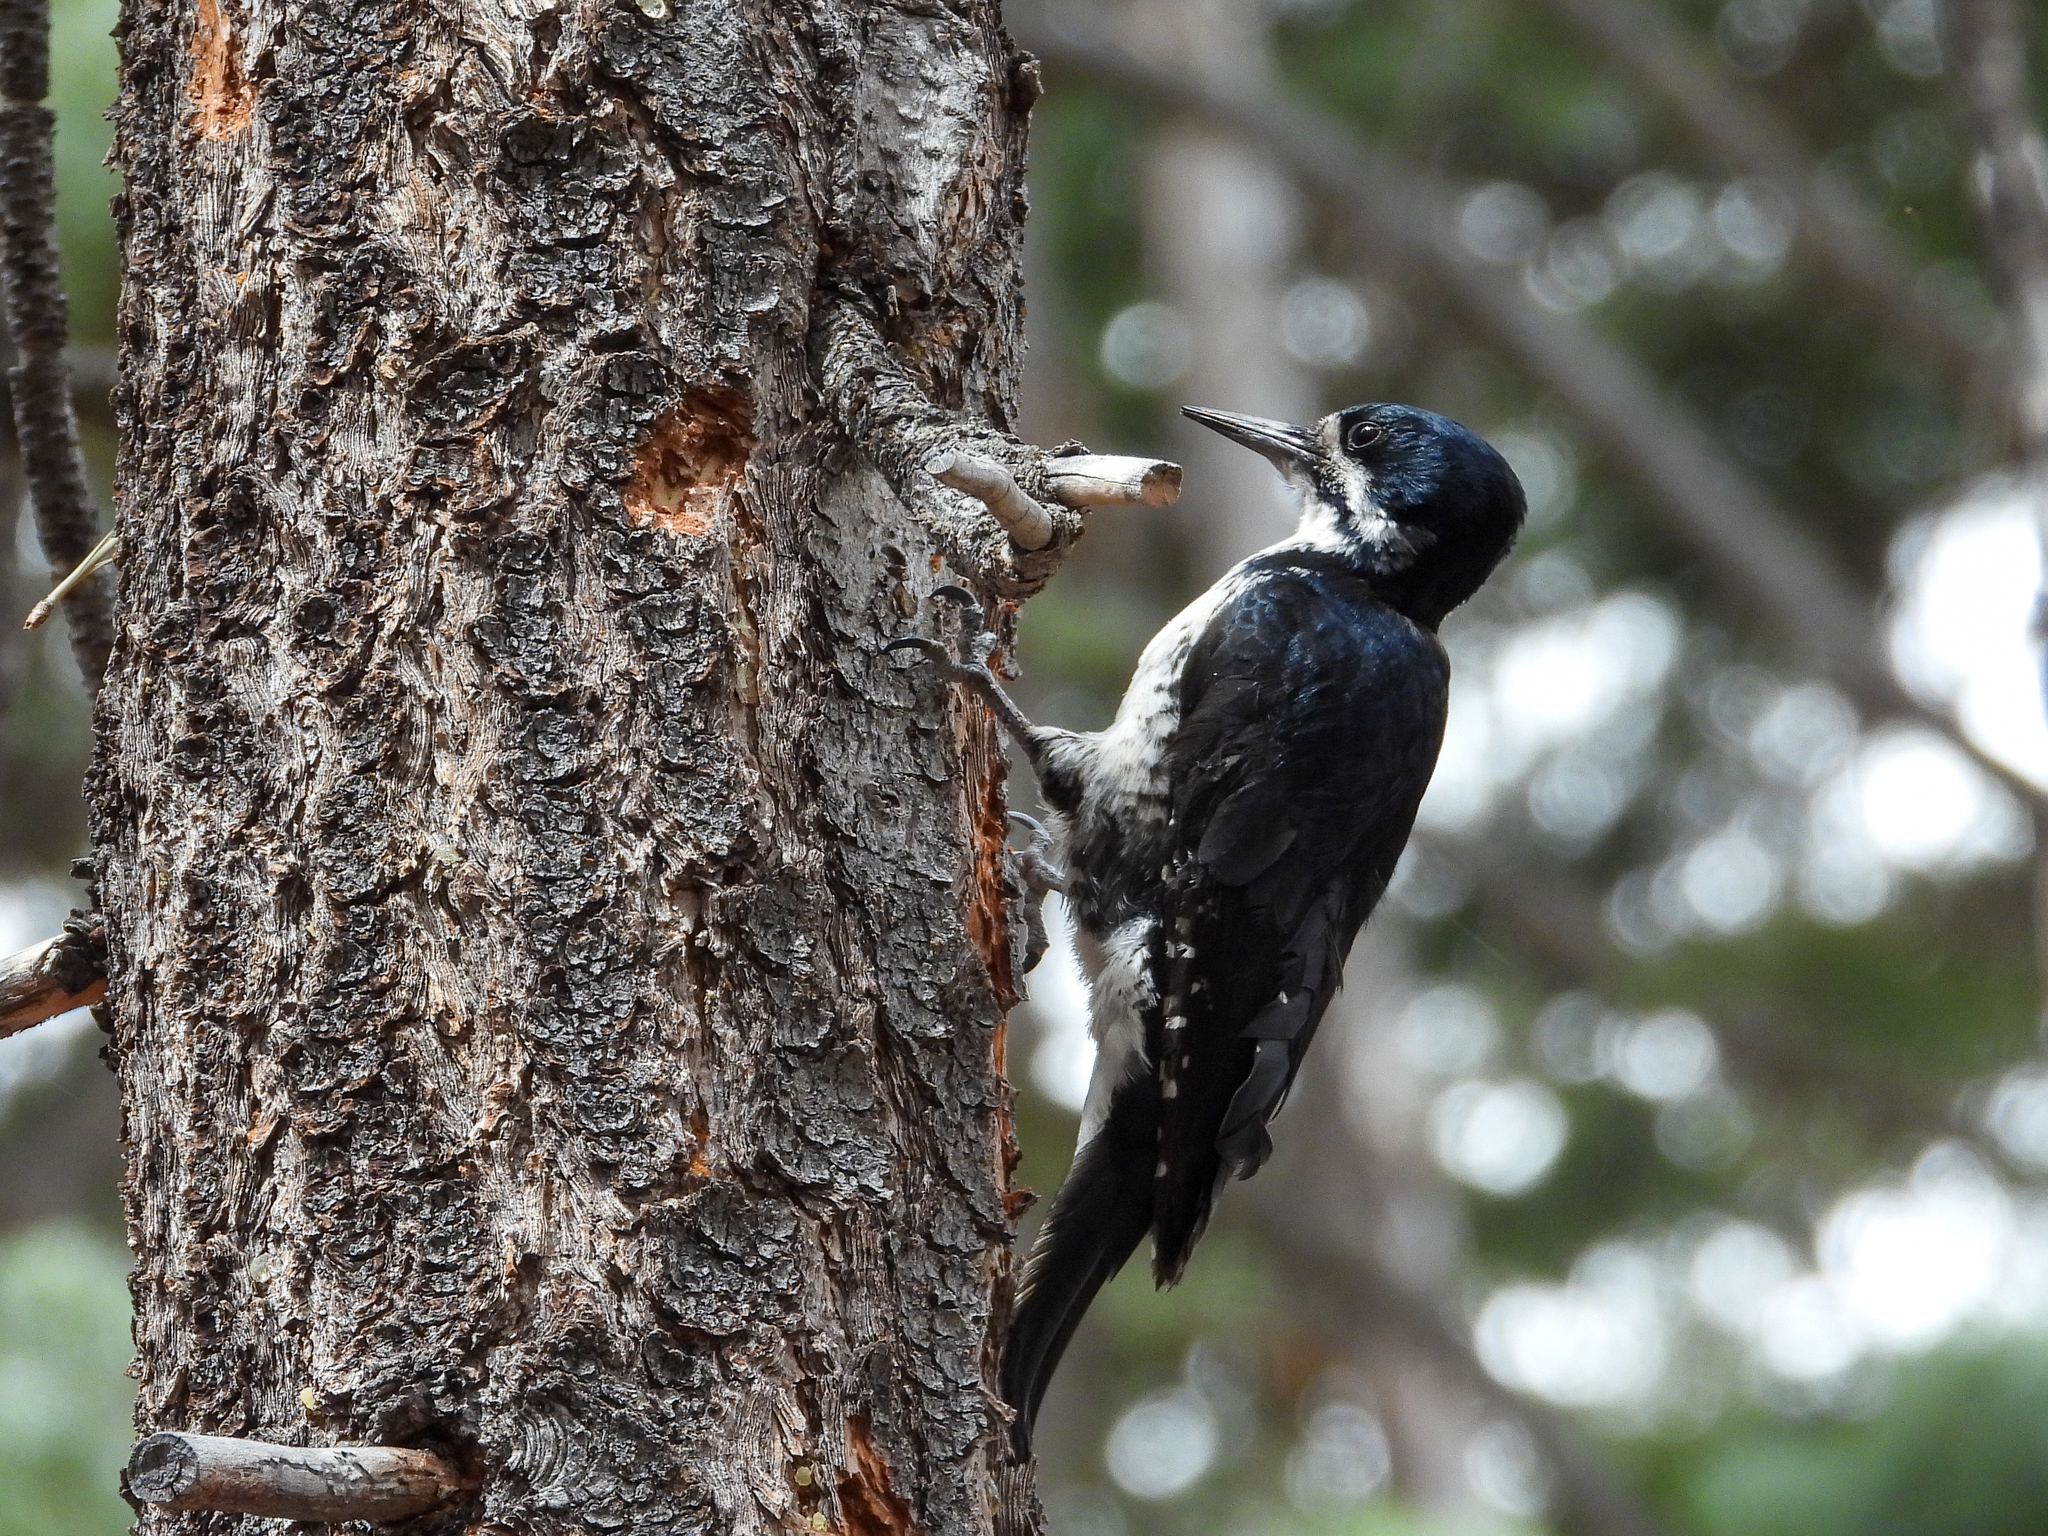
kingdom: Animalia
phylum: Chordata
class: Aves
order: Piciformes
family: Picidae
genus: Picoides
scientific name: Picoides arcticus
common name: Black-backed woodpecker
